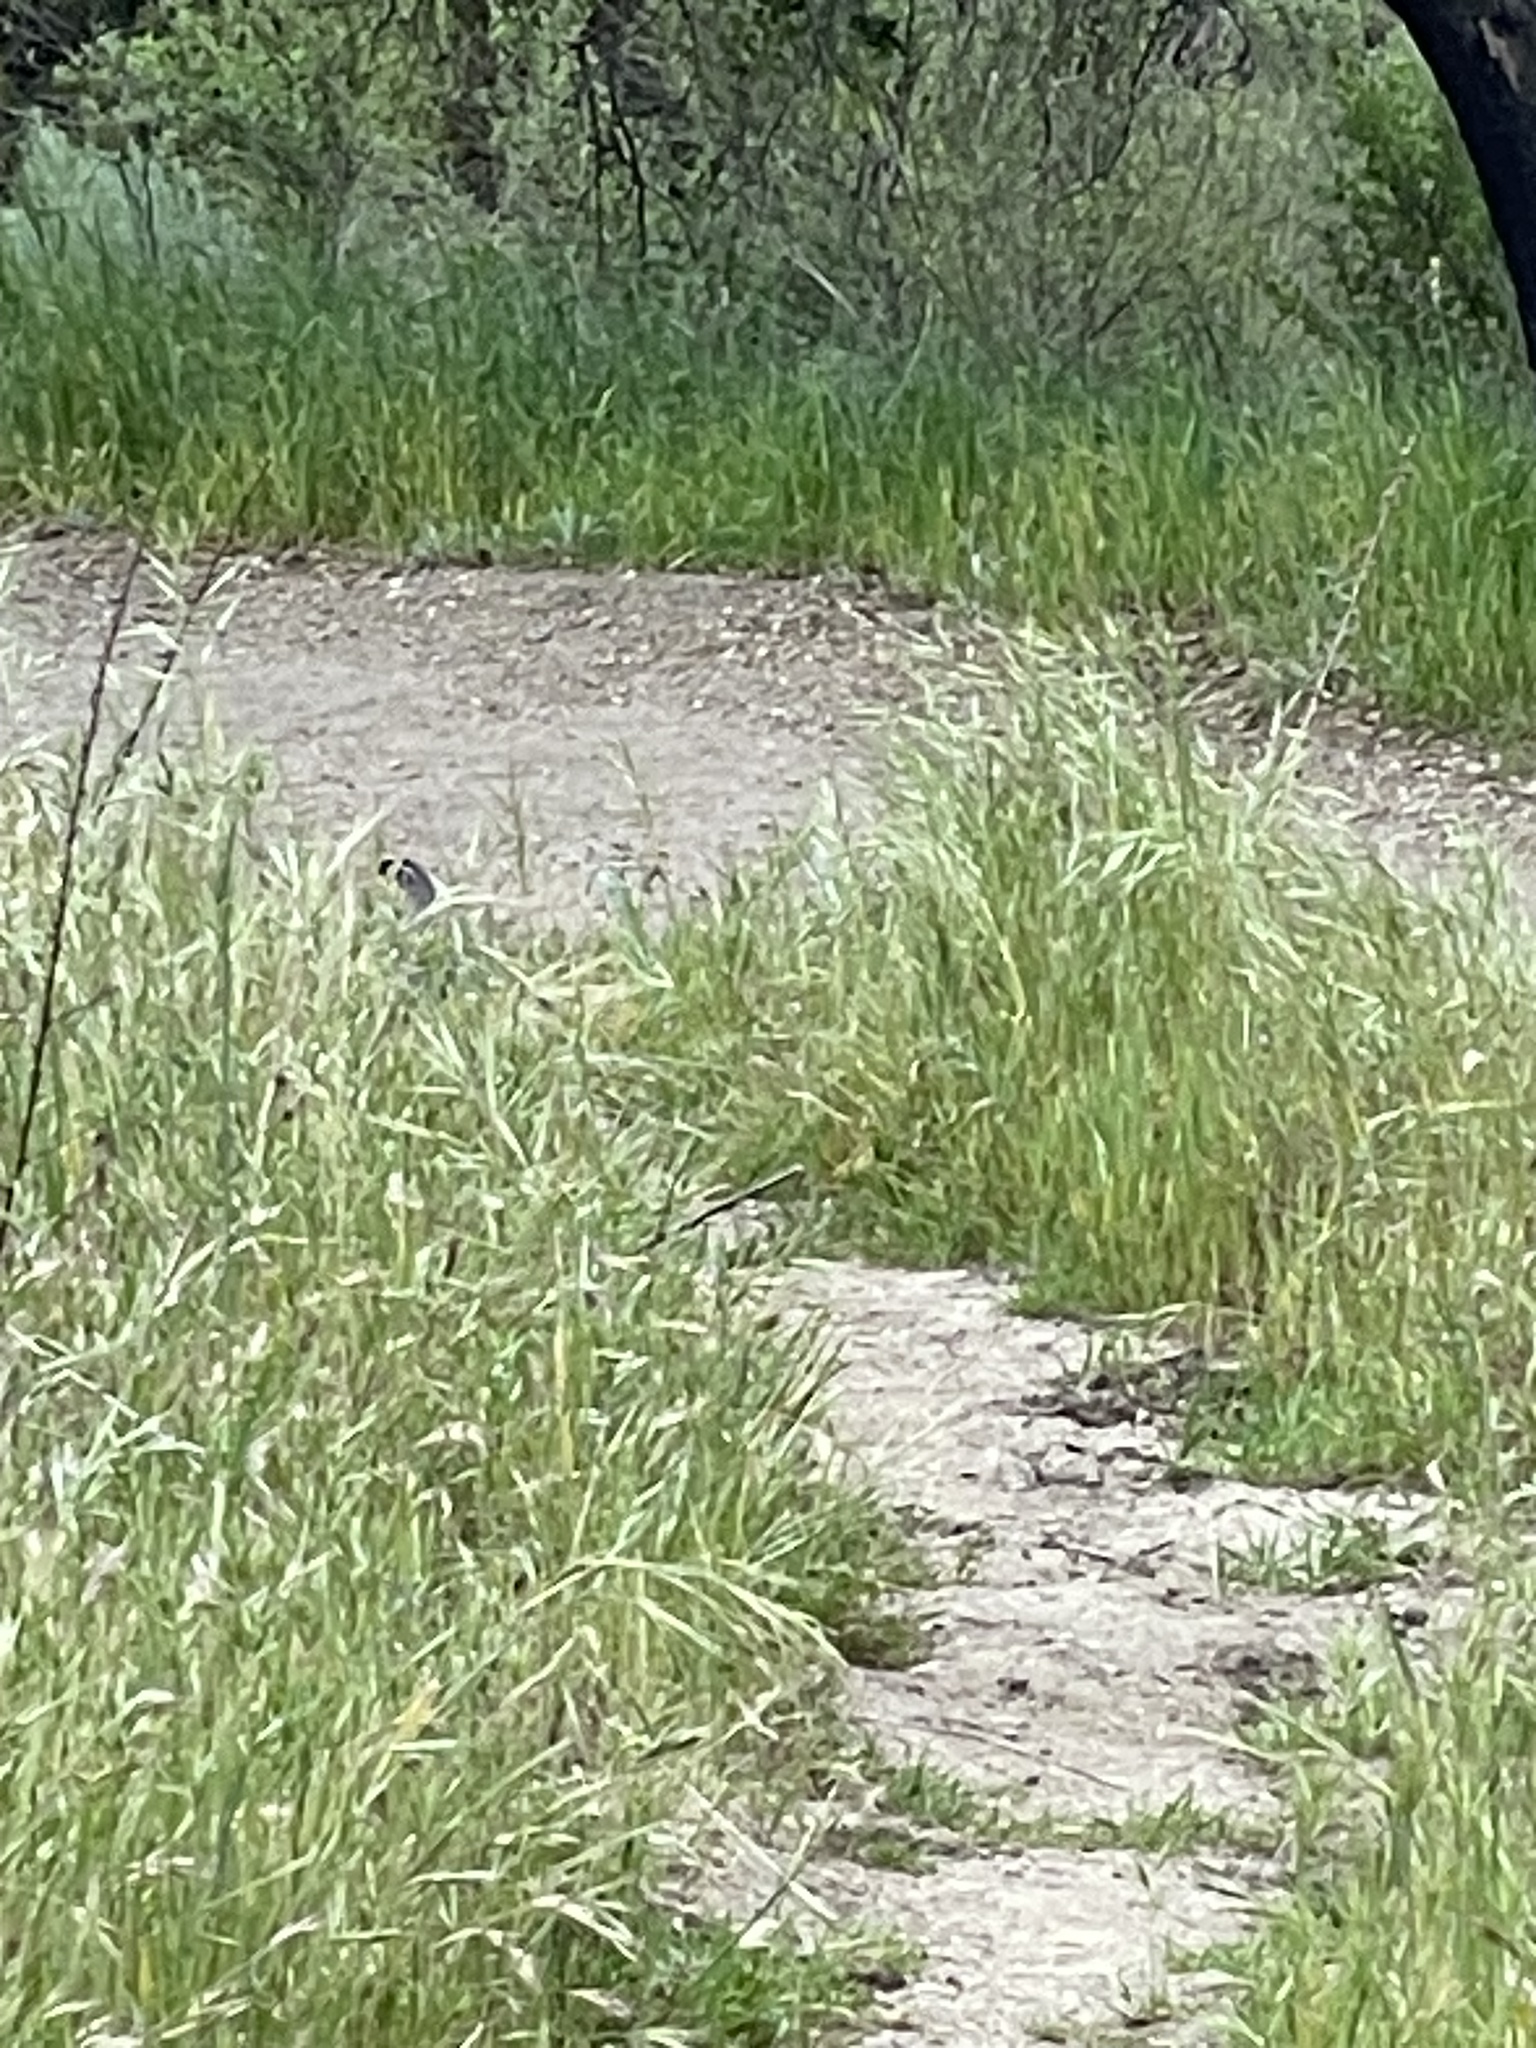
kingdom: Animalia
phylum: Chordata
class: Aves
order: Galliformes
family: Odontophoridae
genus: Callipepla
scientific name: Callipepla californica
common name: California quail
